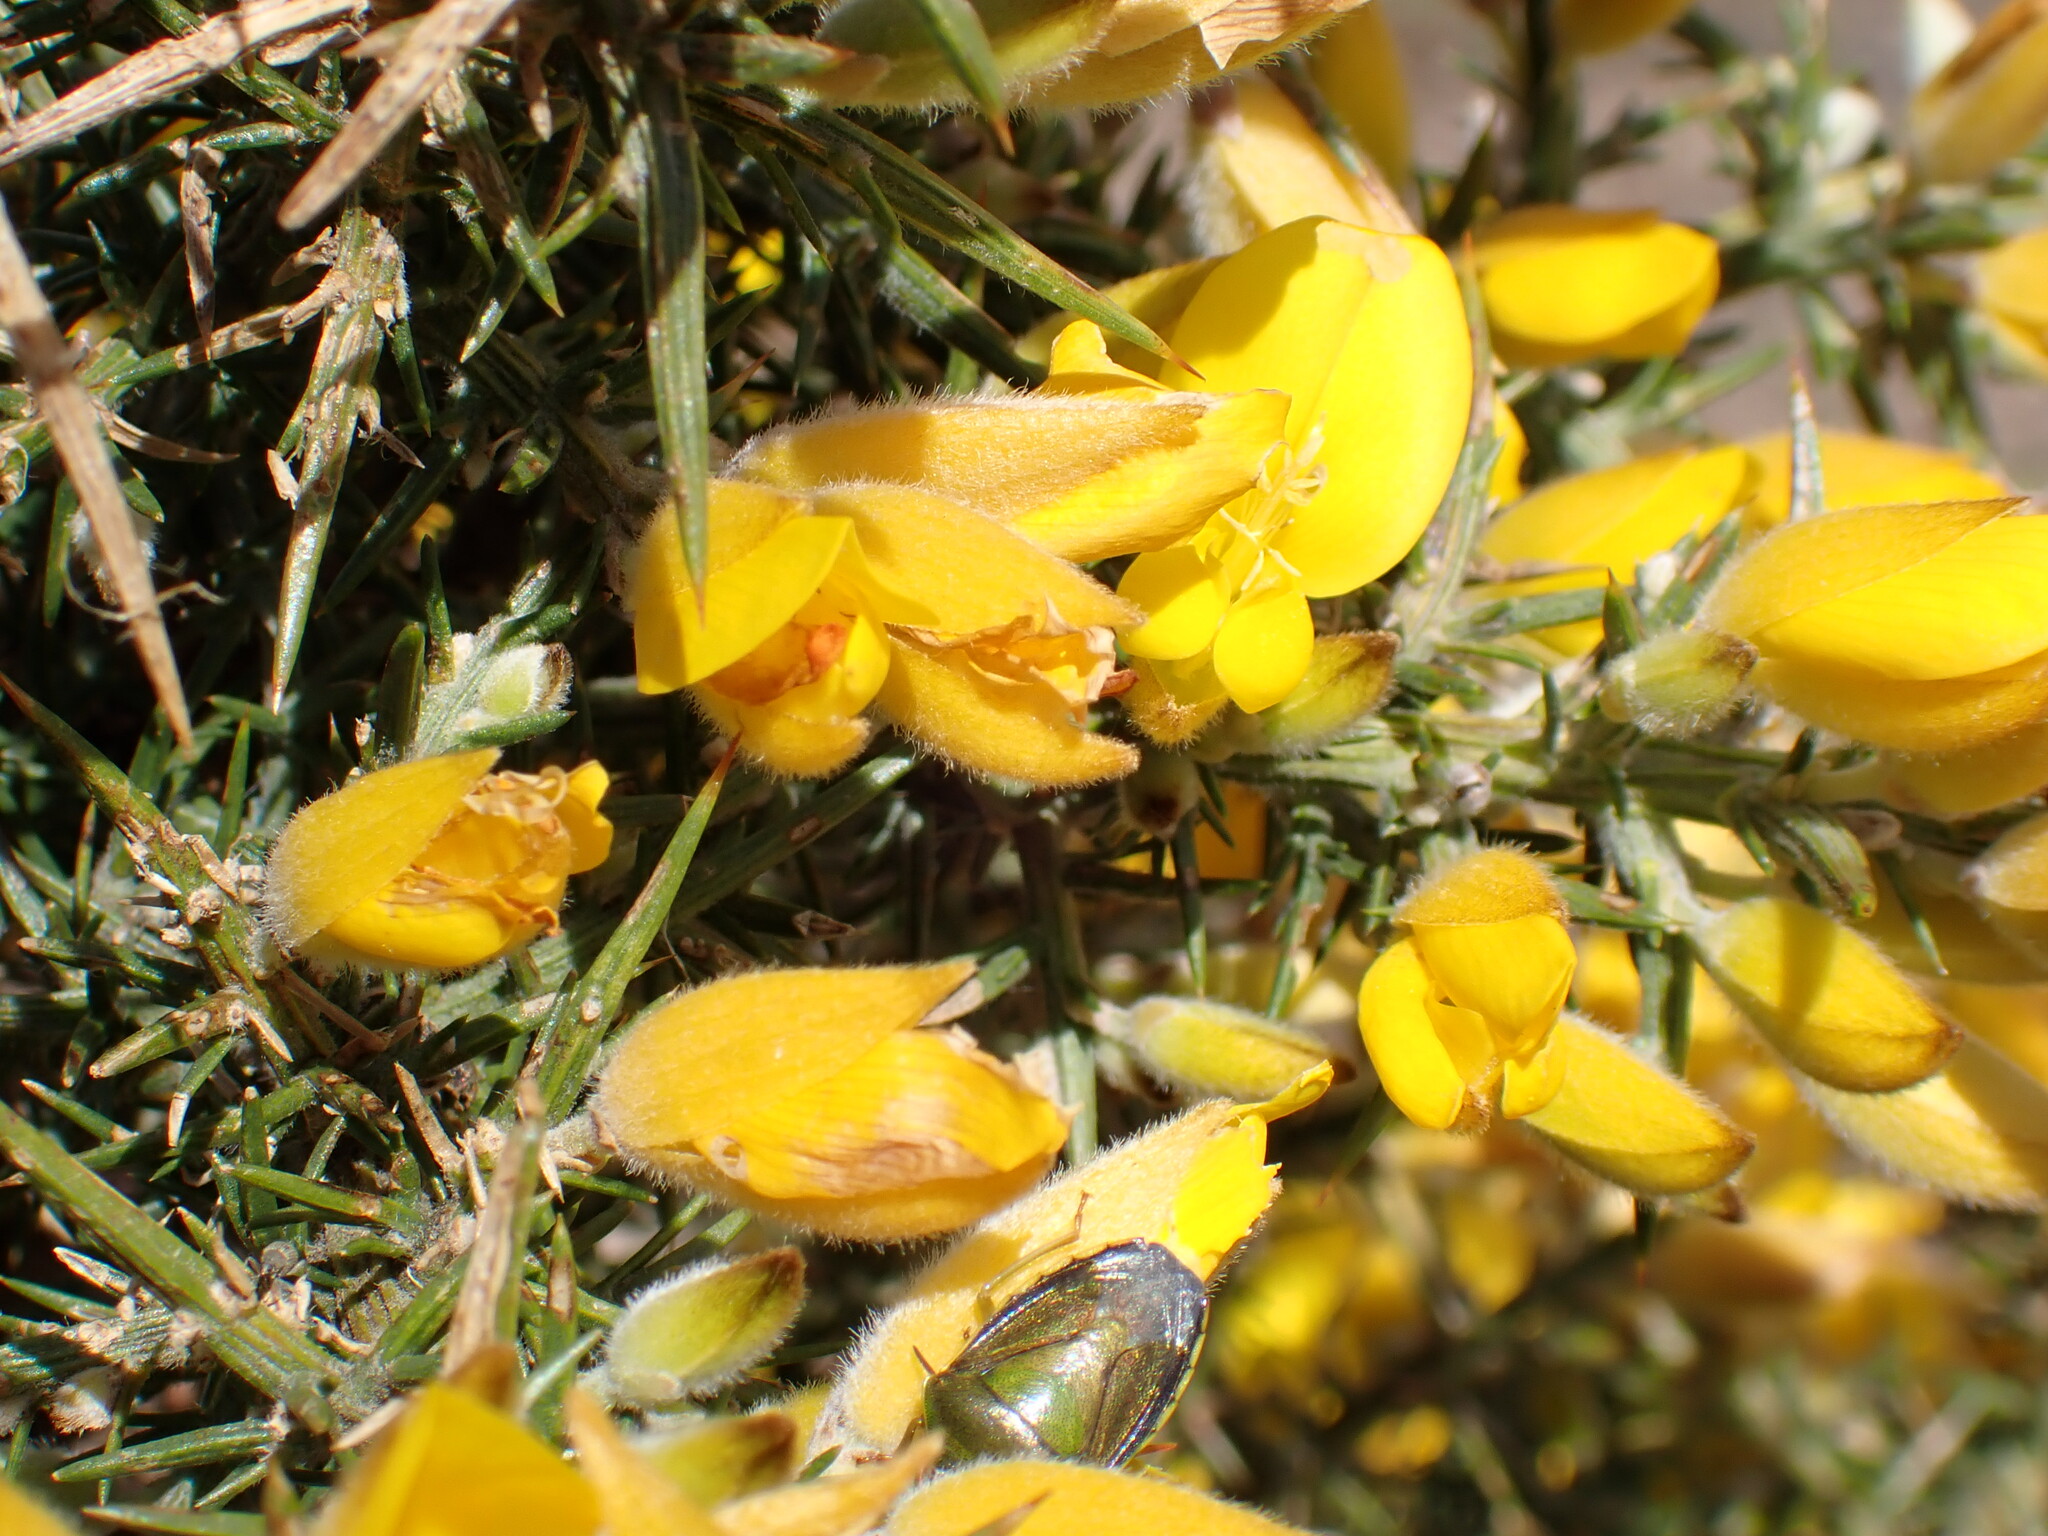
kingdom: Animalia
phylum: Arthropoda
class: Insecta
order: Hemiptera
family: Pentatomidae
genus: Piezodorus
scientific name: Piezodorus lituratus
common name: Stink bug
